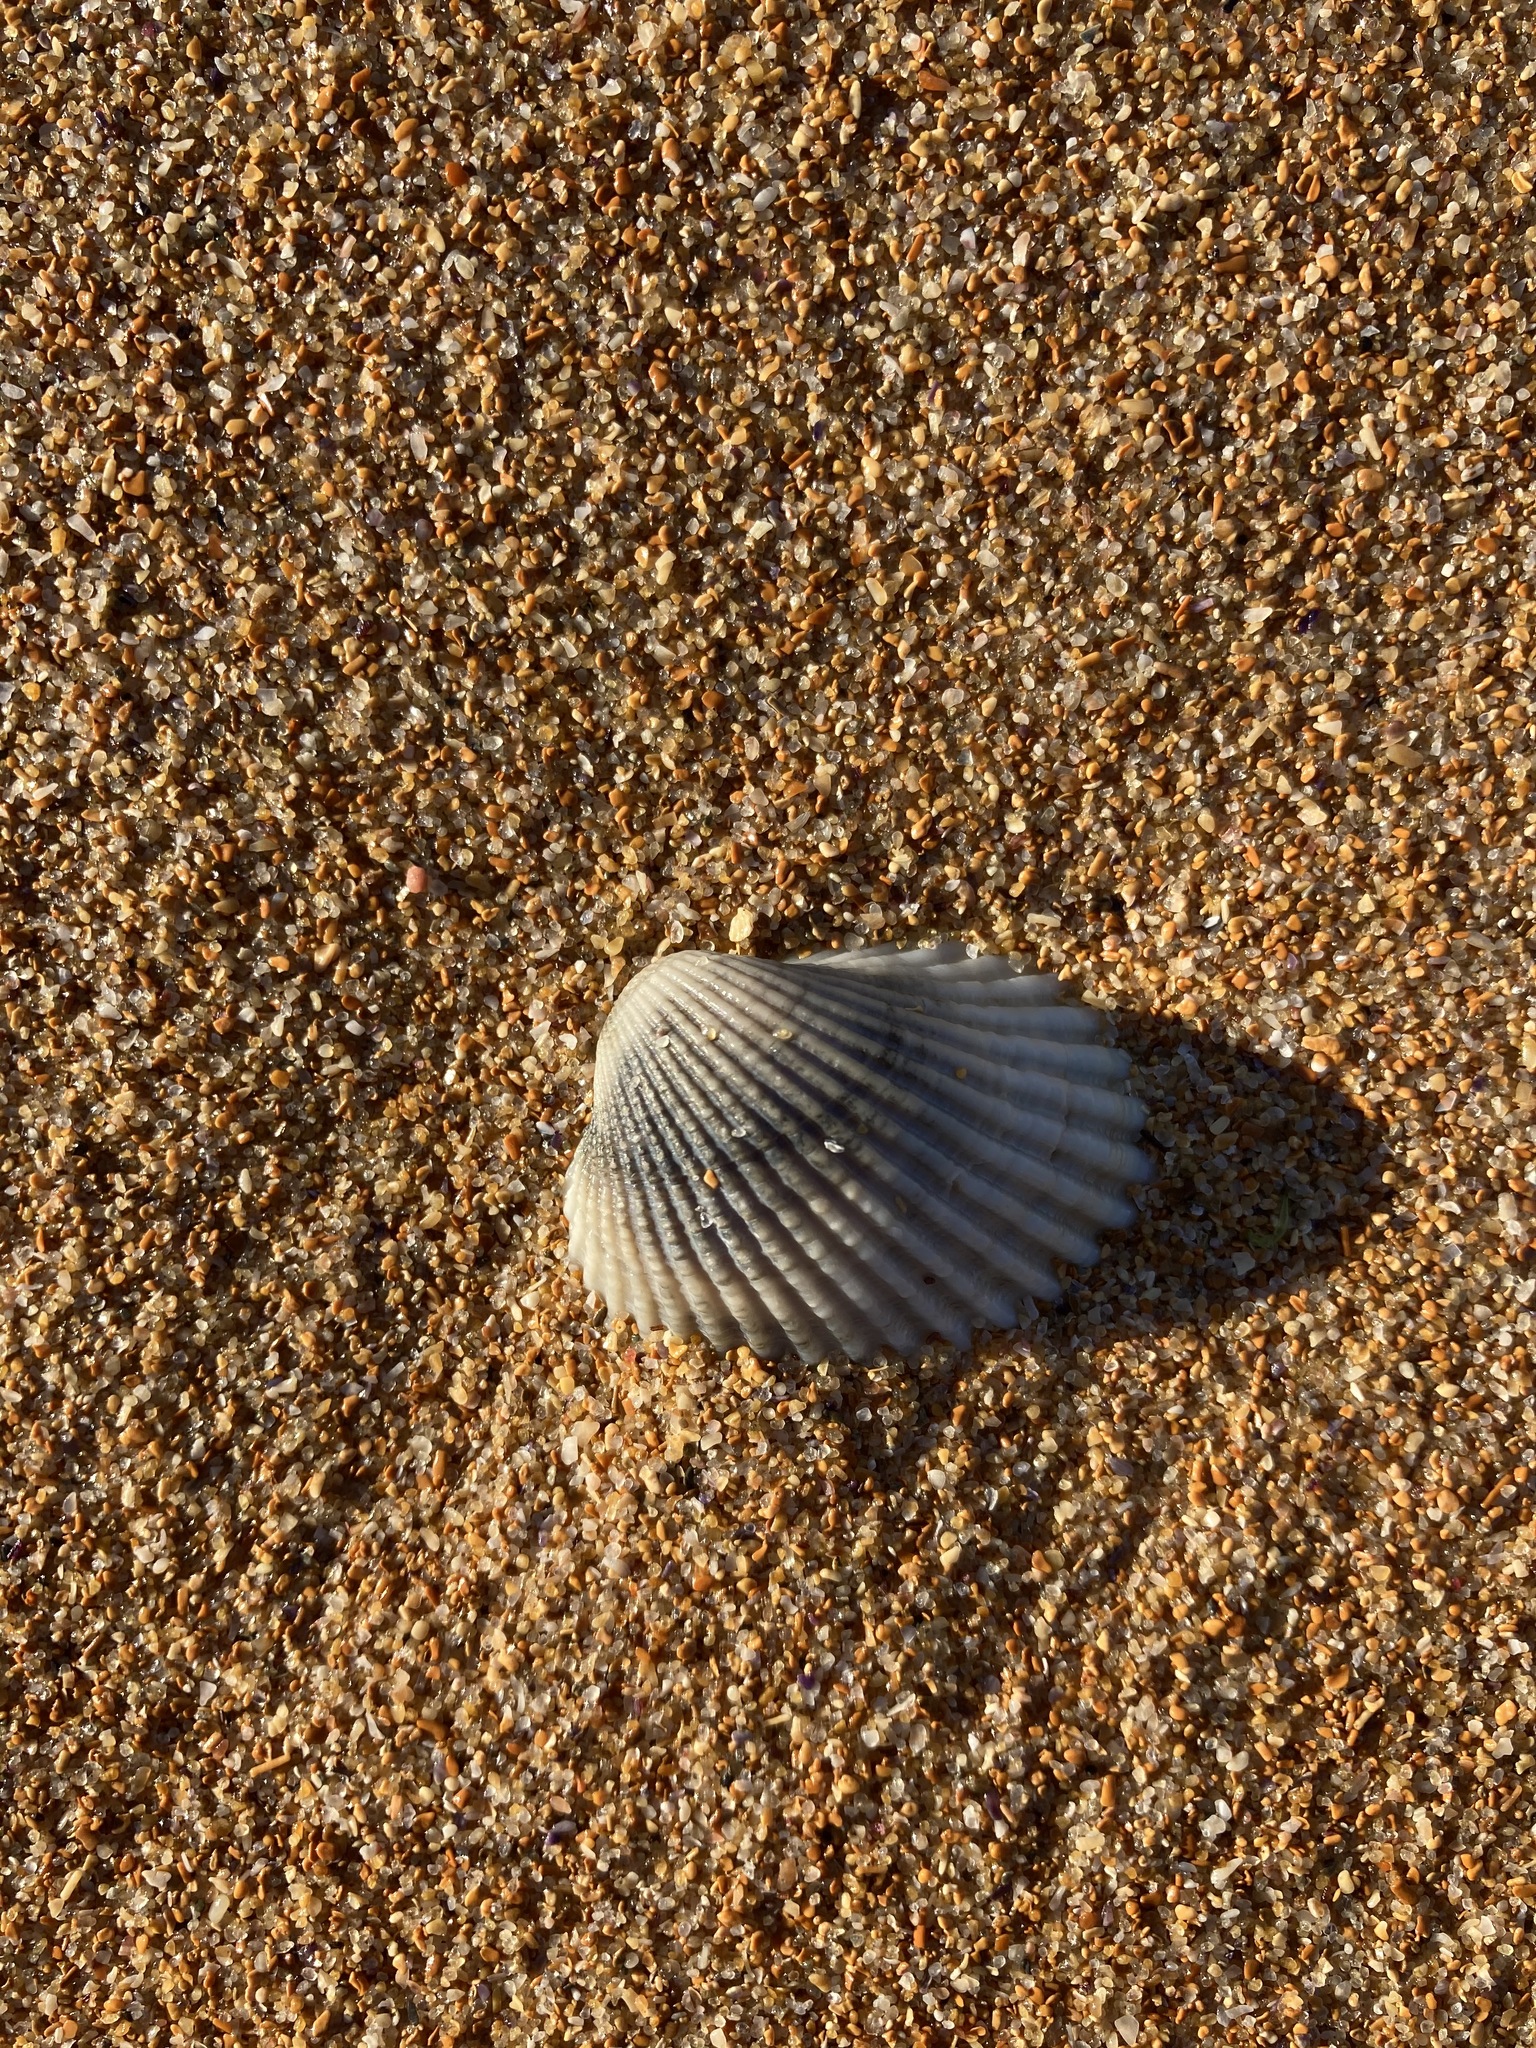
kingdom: Animalia
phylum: Mollusca
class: Bivalvia
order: Arcida
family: Arcidae
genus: Anadara
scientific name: Anadara trapezia
